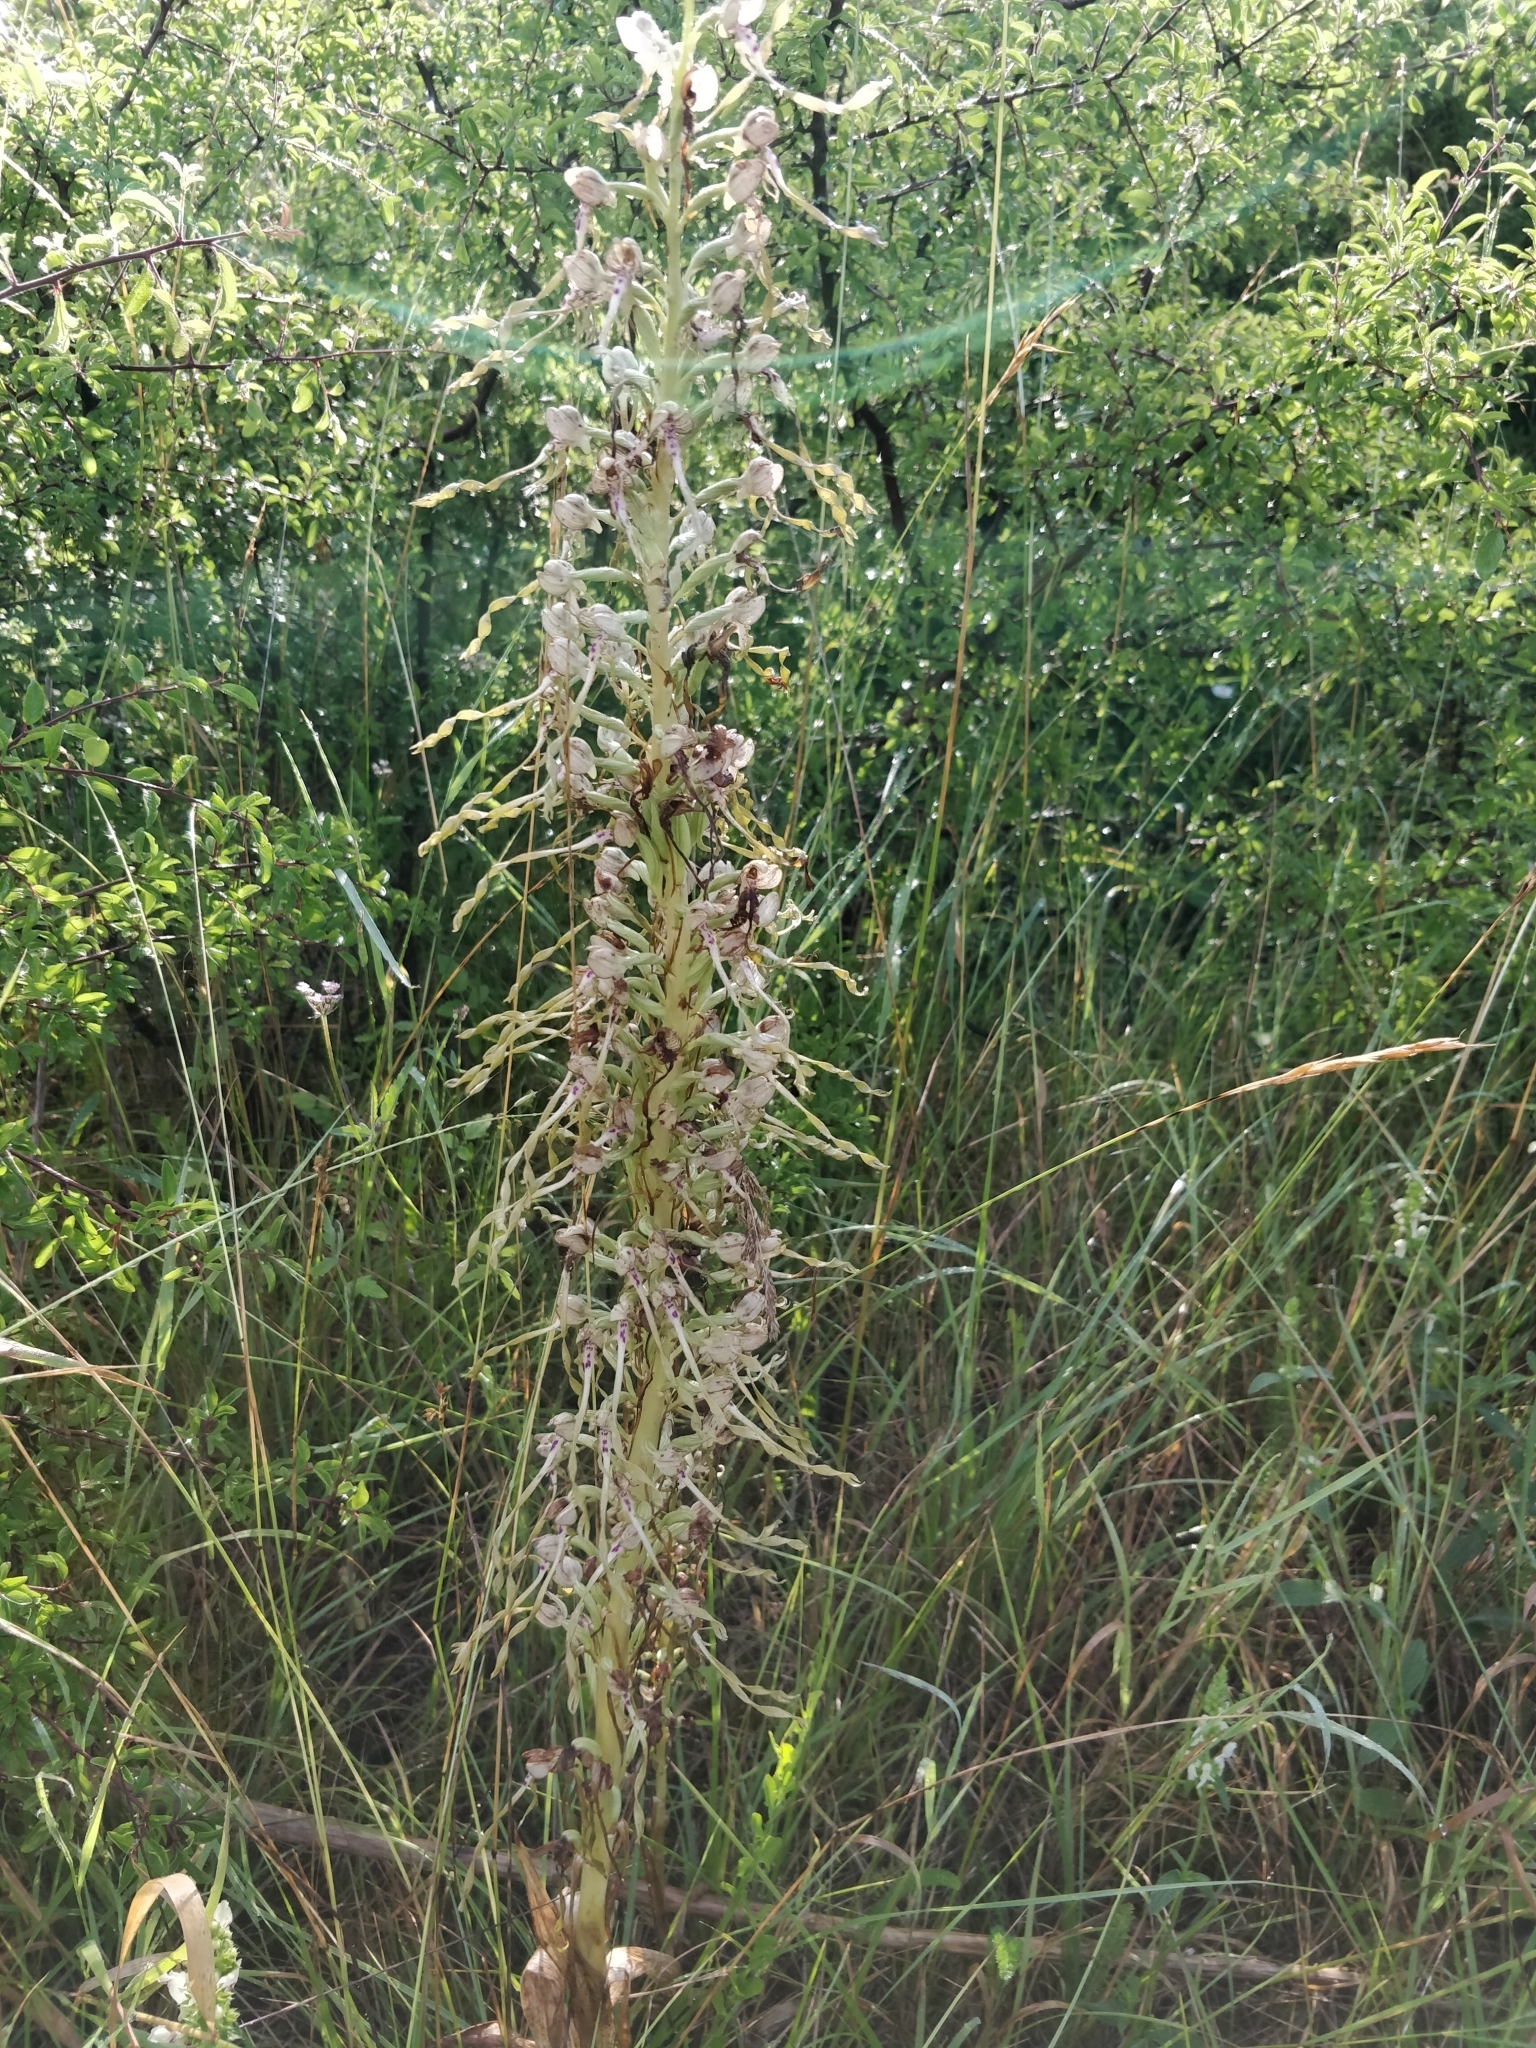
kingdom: Plantae
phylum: Tracheophyta
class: Liliopsida
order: Asparagales
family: Orchidaceae
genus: Himantoglossum
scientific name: Himantoglossum hircinum
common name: Lizard orchid
